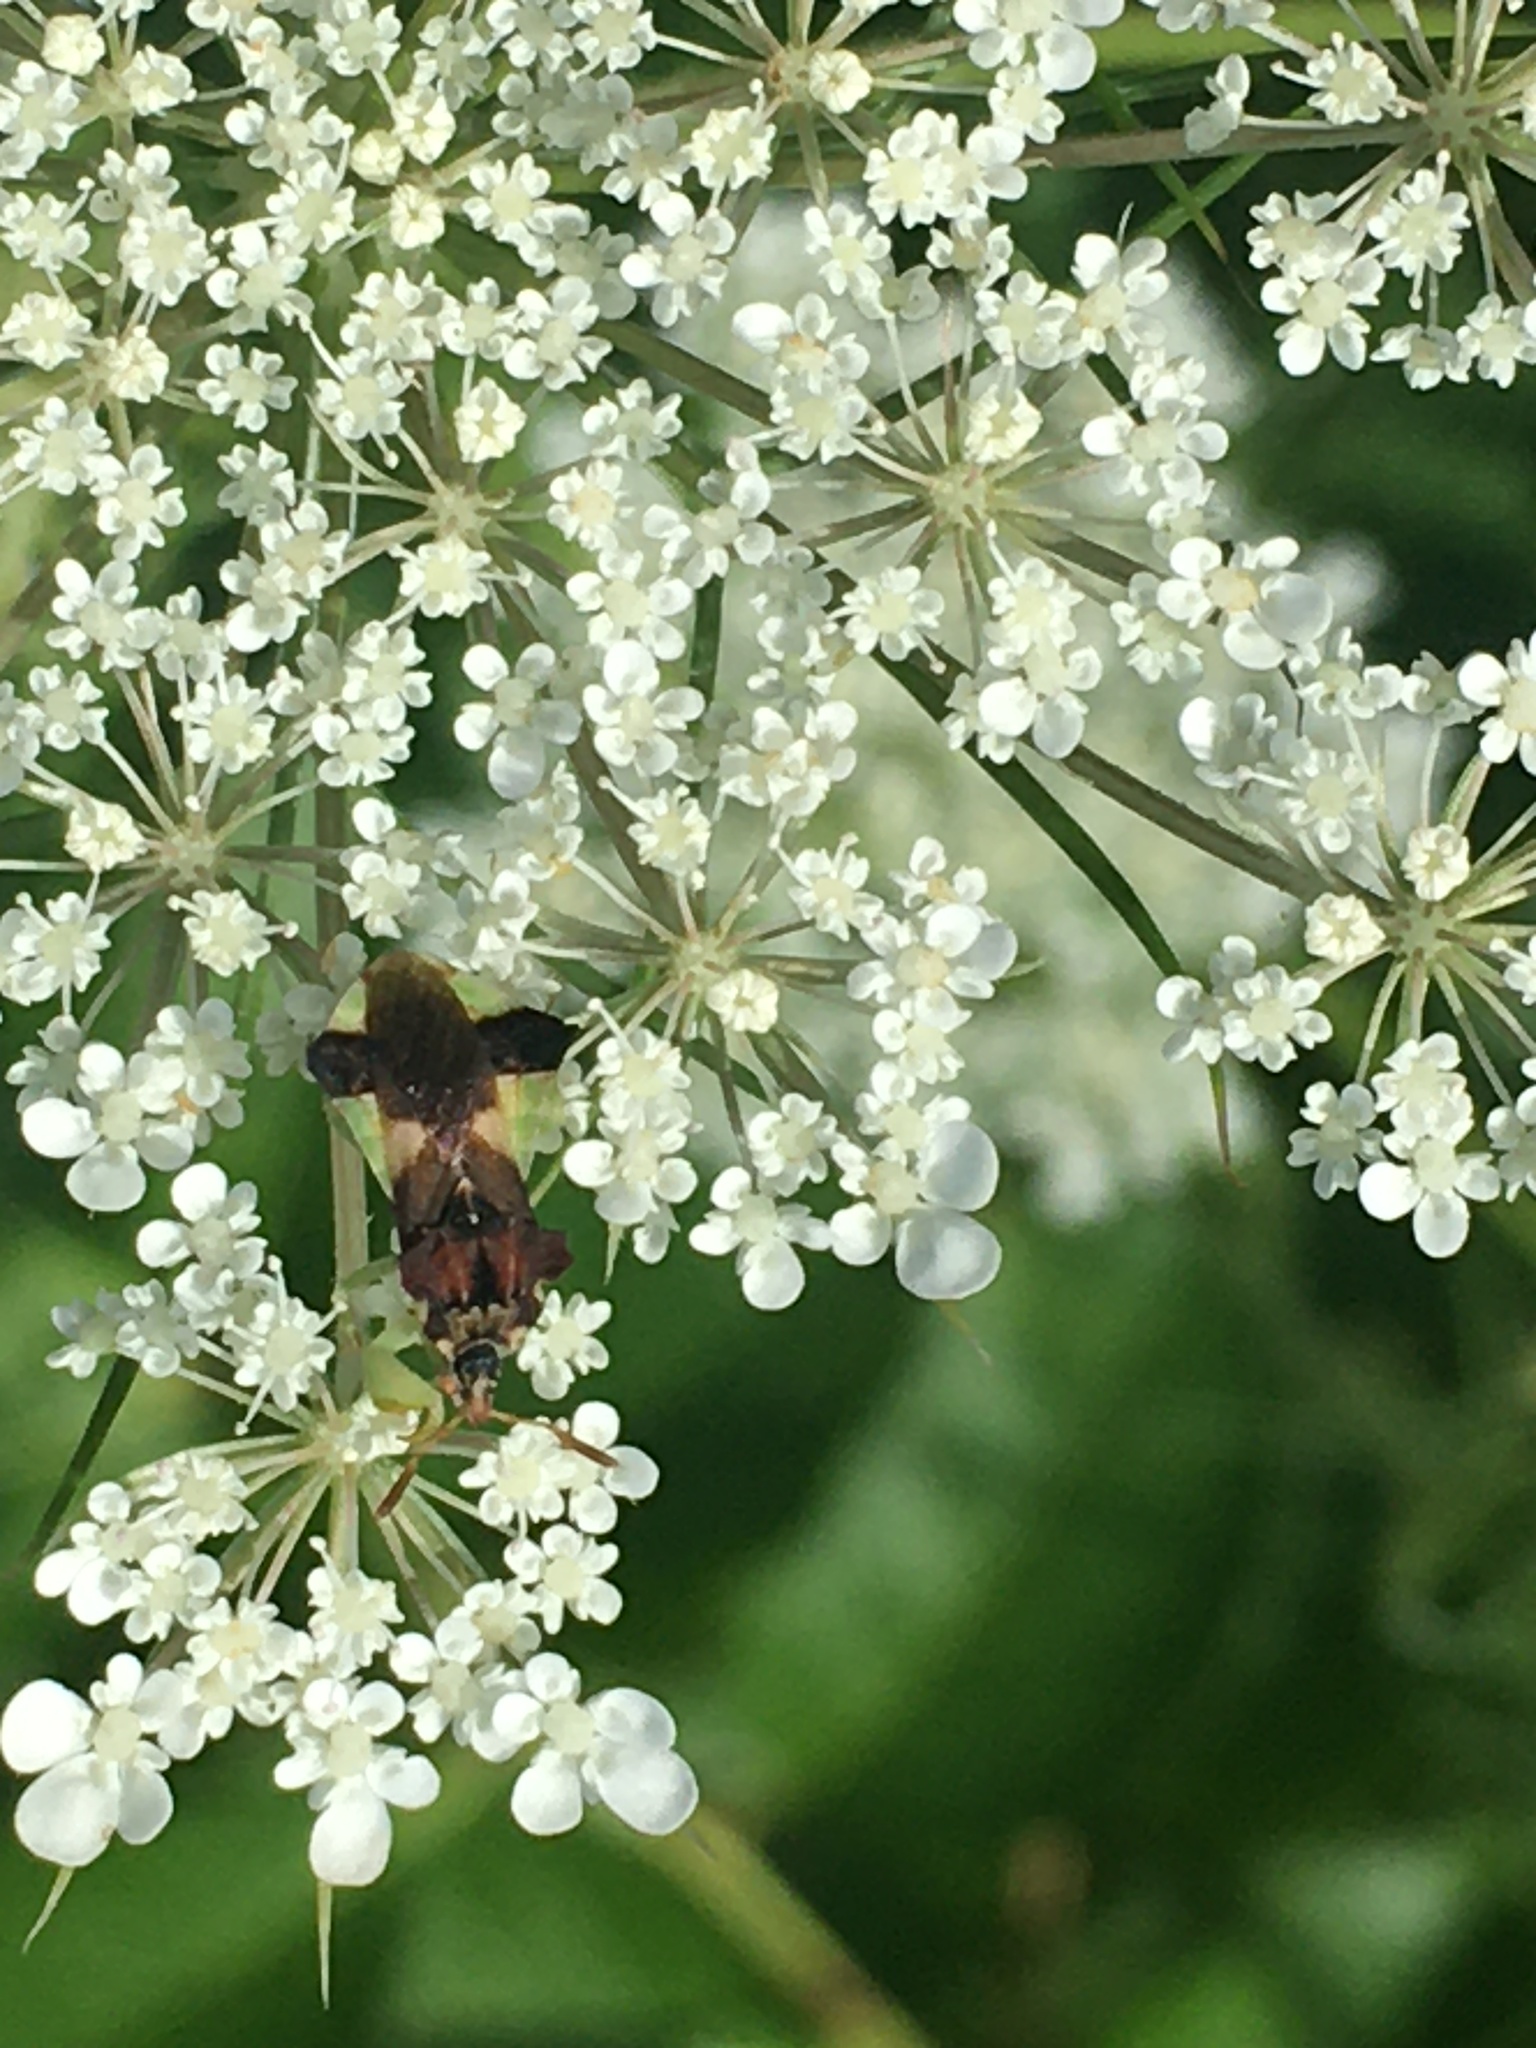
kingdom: Animalia
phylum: Arthropoda
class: Insecta
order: Hemiptera
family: Reduviidae
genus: Phymata
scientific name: Phymata pennsylvanica
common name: Pennsylvania ambush bug
